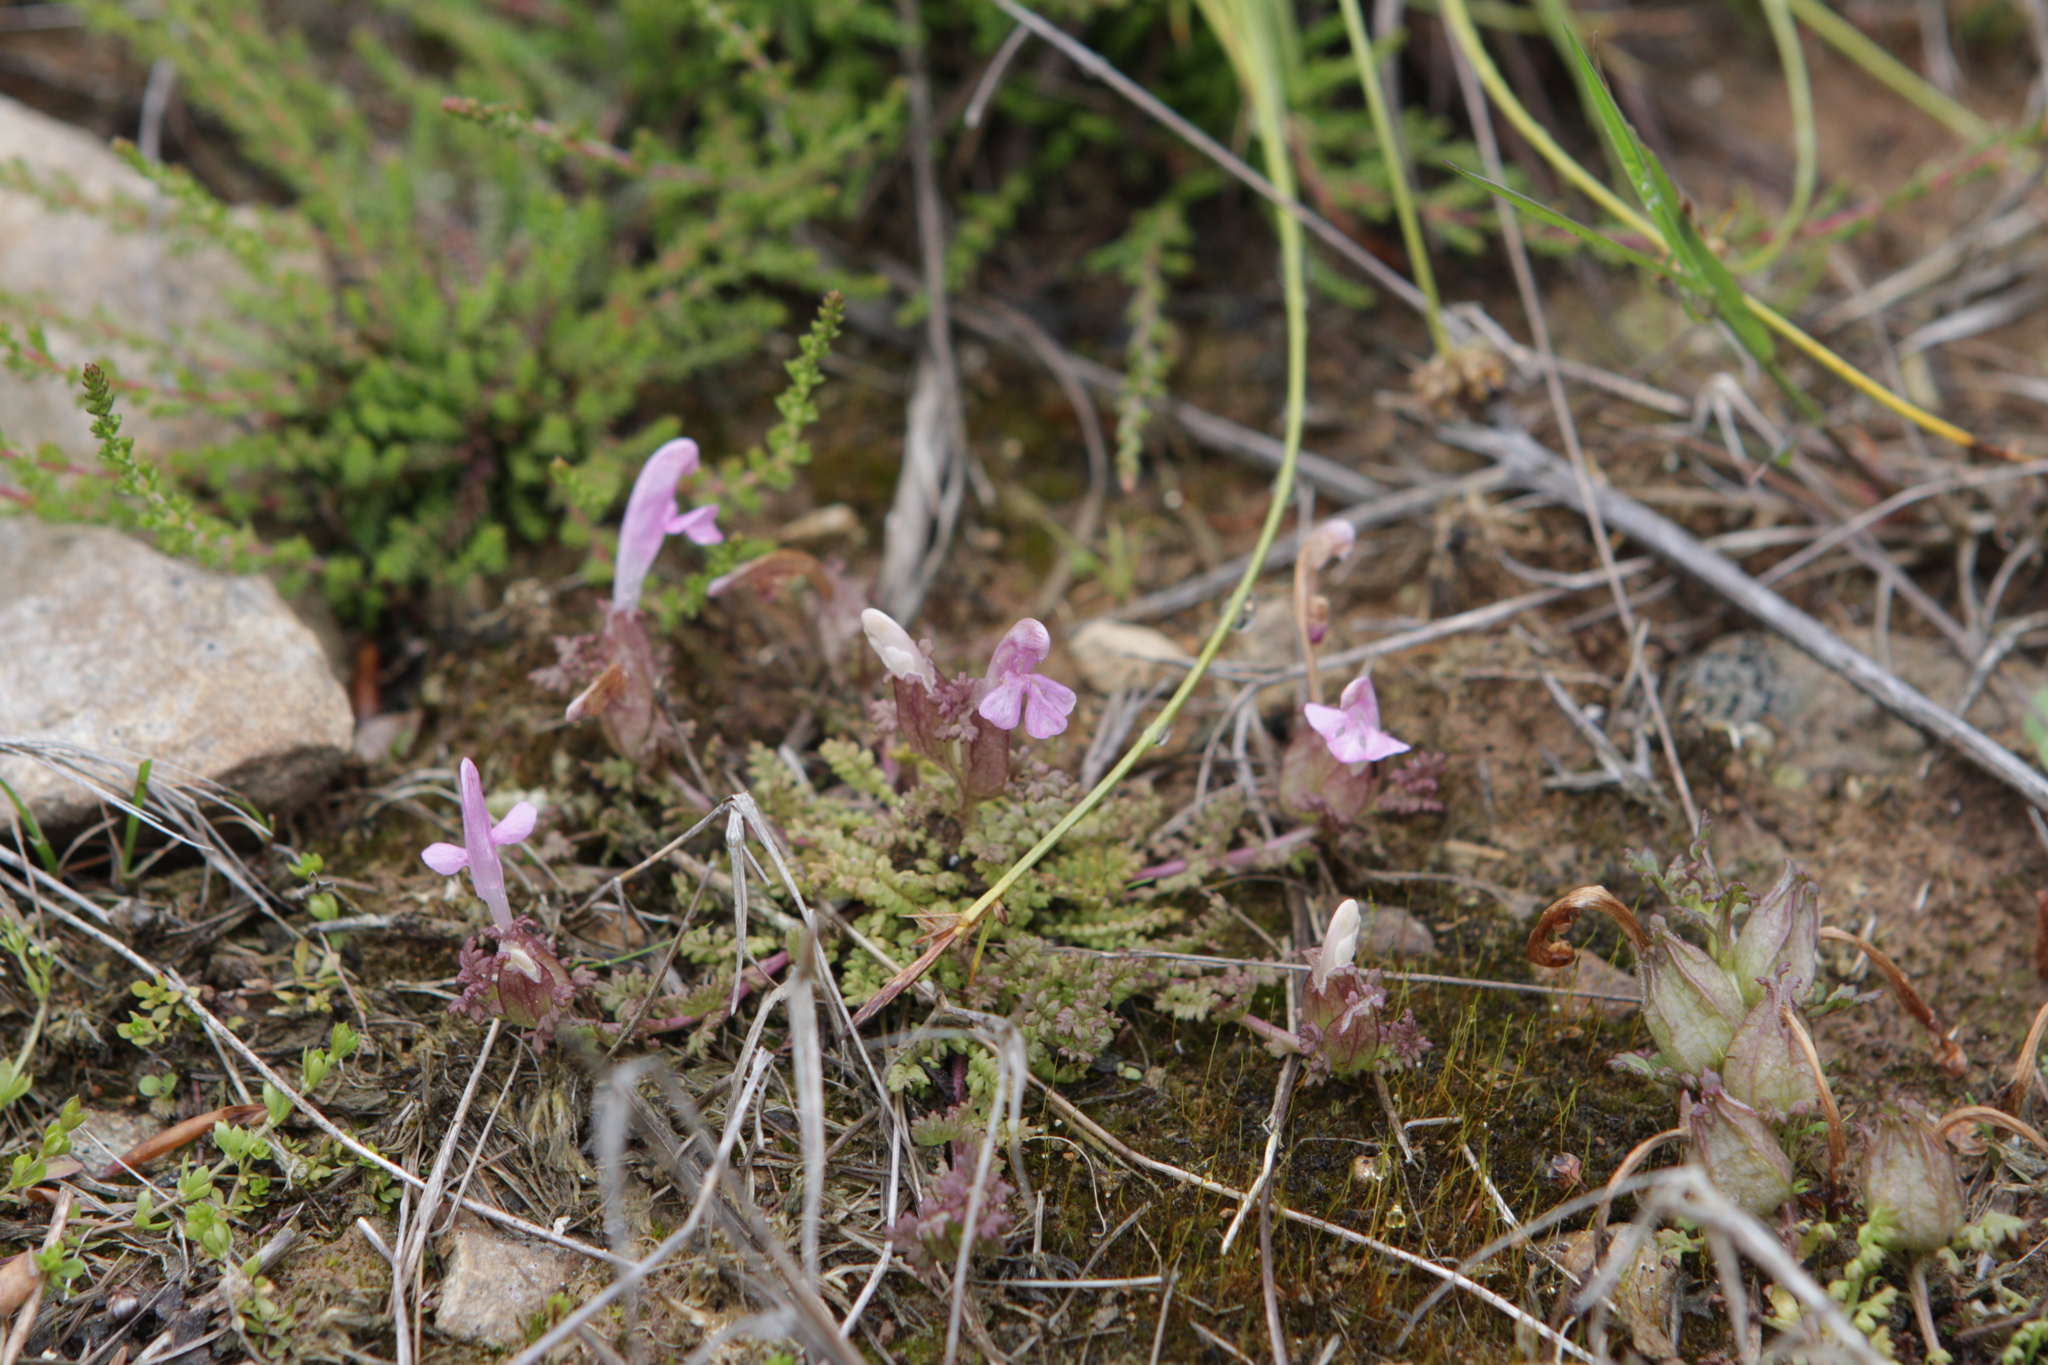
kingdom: Plantae
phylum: Tracheophyta
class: Magnoliopsida
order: Lamiales
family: Orobanchaceae
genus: Pedicularis
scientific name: Pedicularis sylvatica
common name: Lousewort
